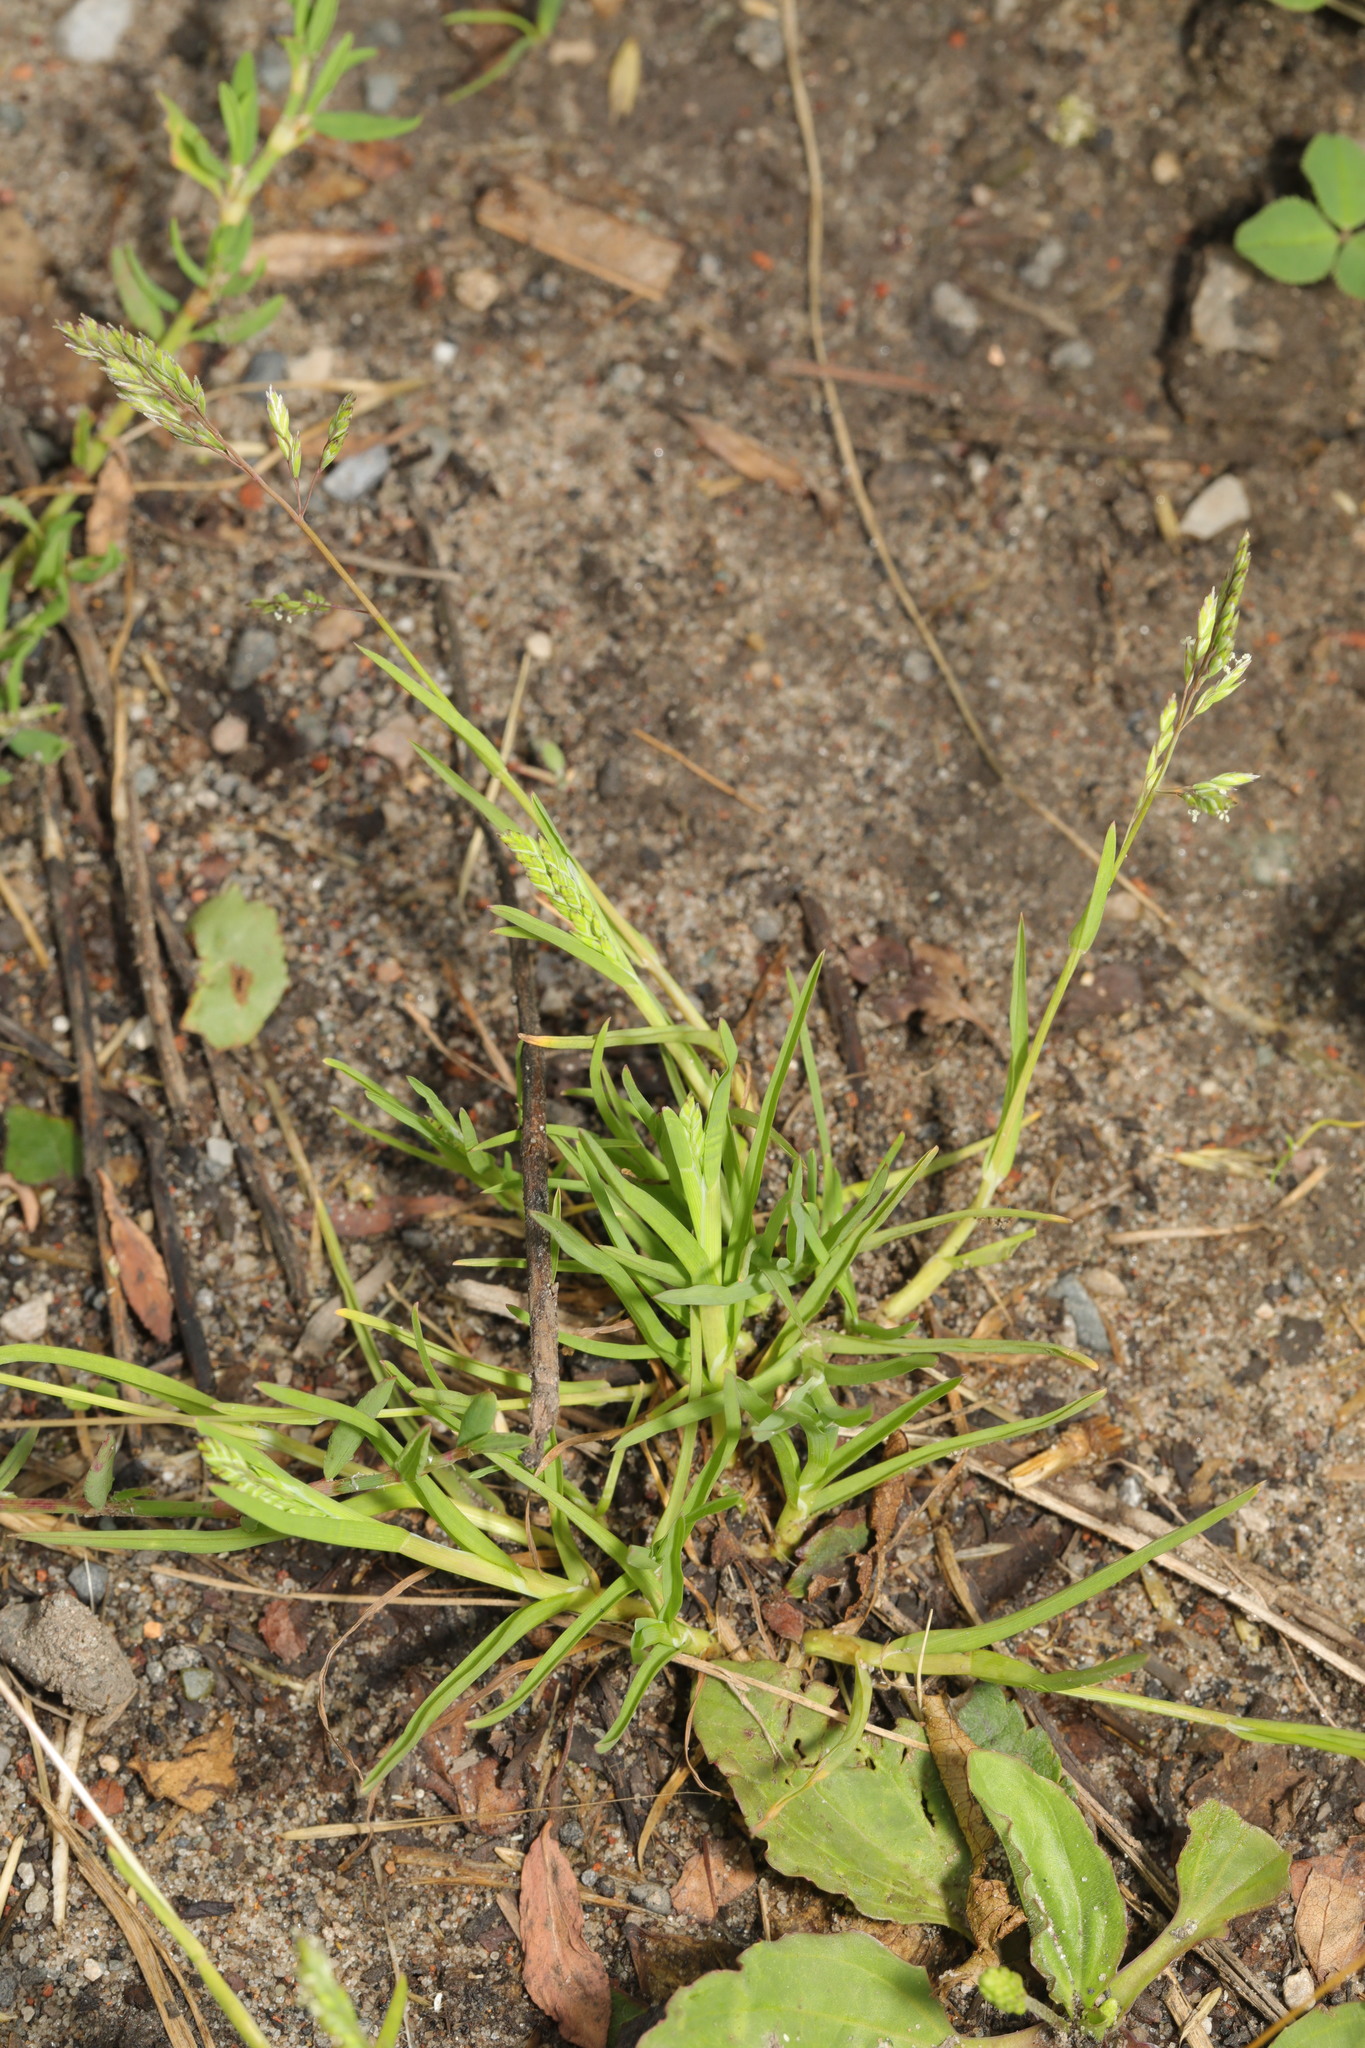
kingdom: Plantae
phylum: Tracheophyta
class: Liliopsida
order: Poales
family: Poaceae
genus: Poa
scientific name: Poa annua
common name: Annual bluegrass
